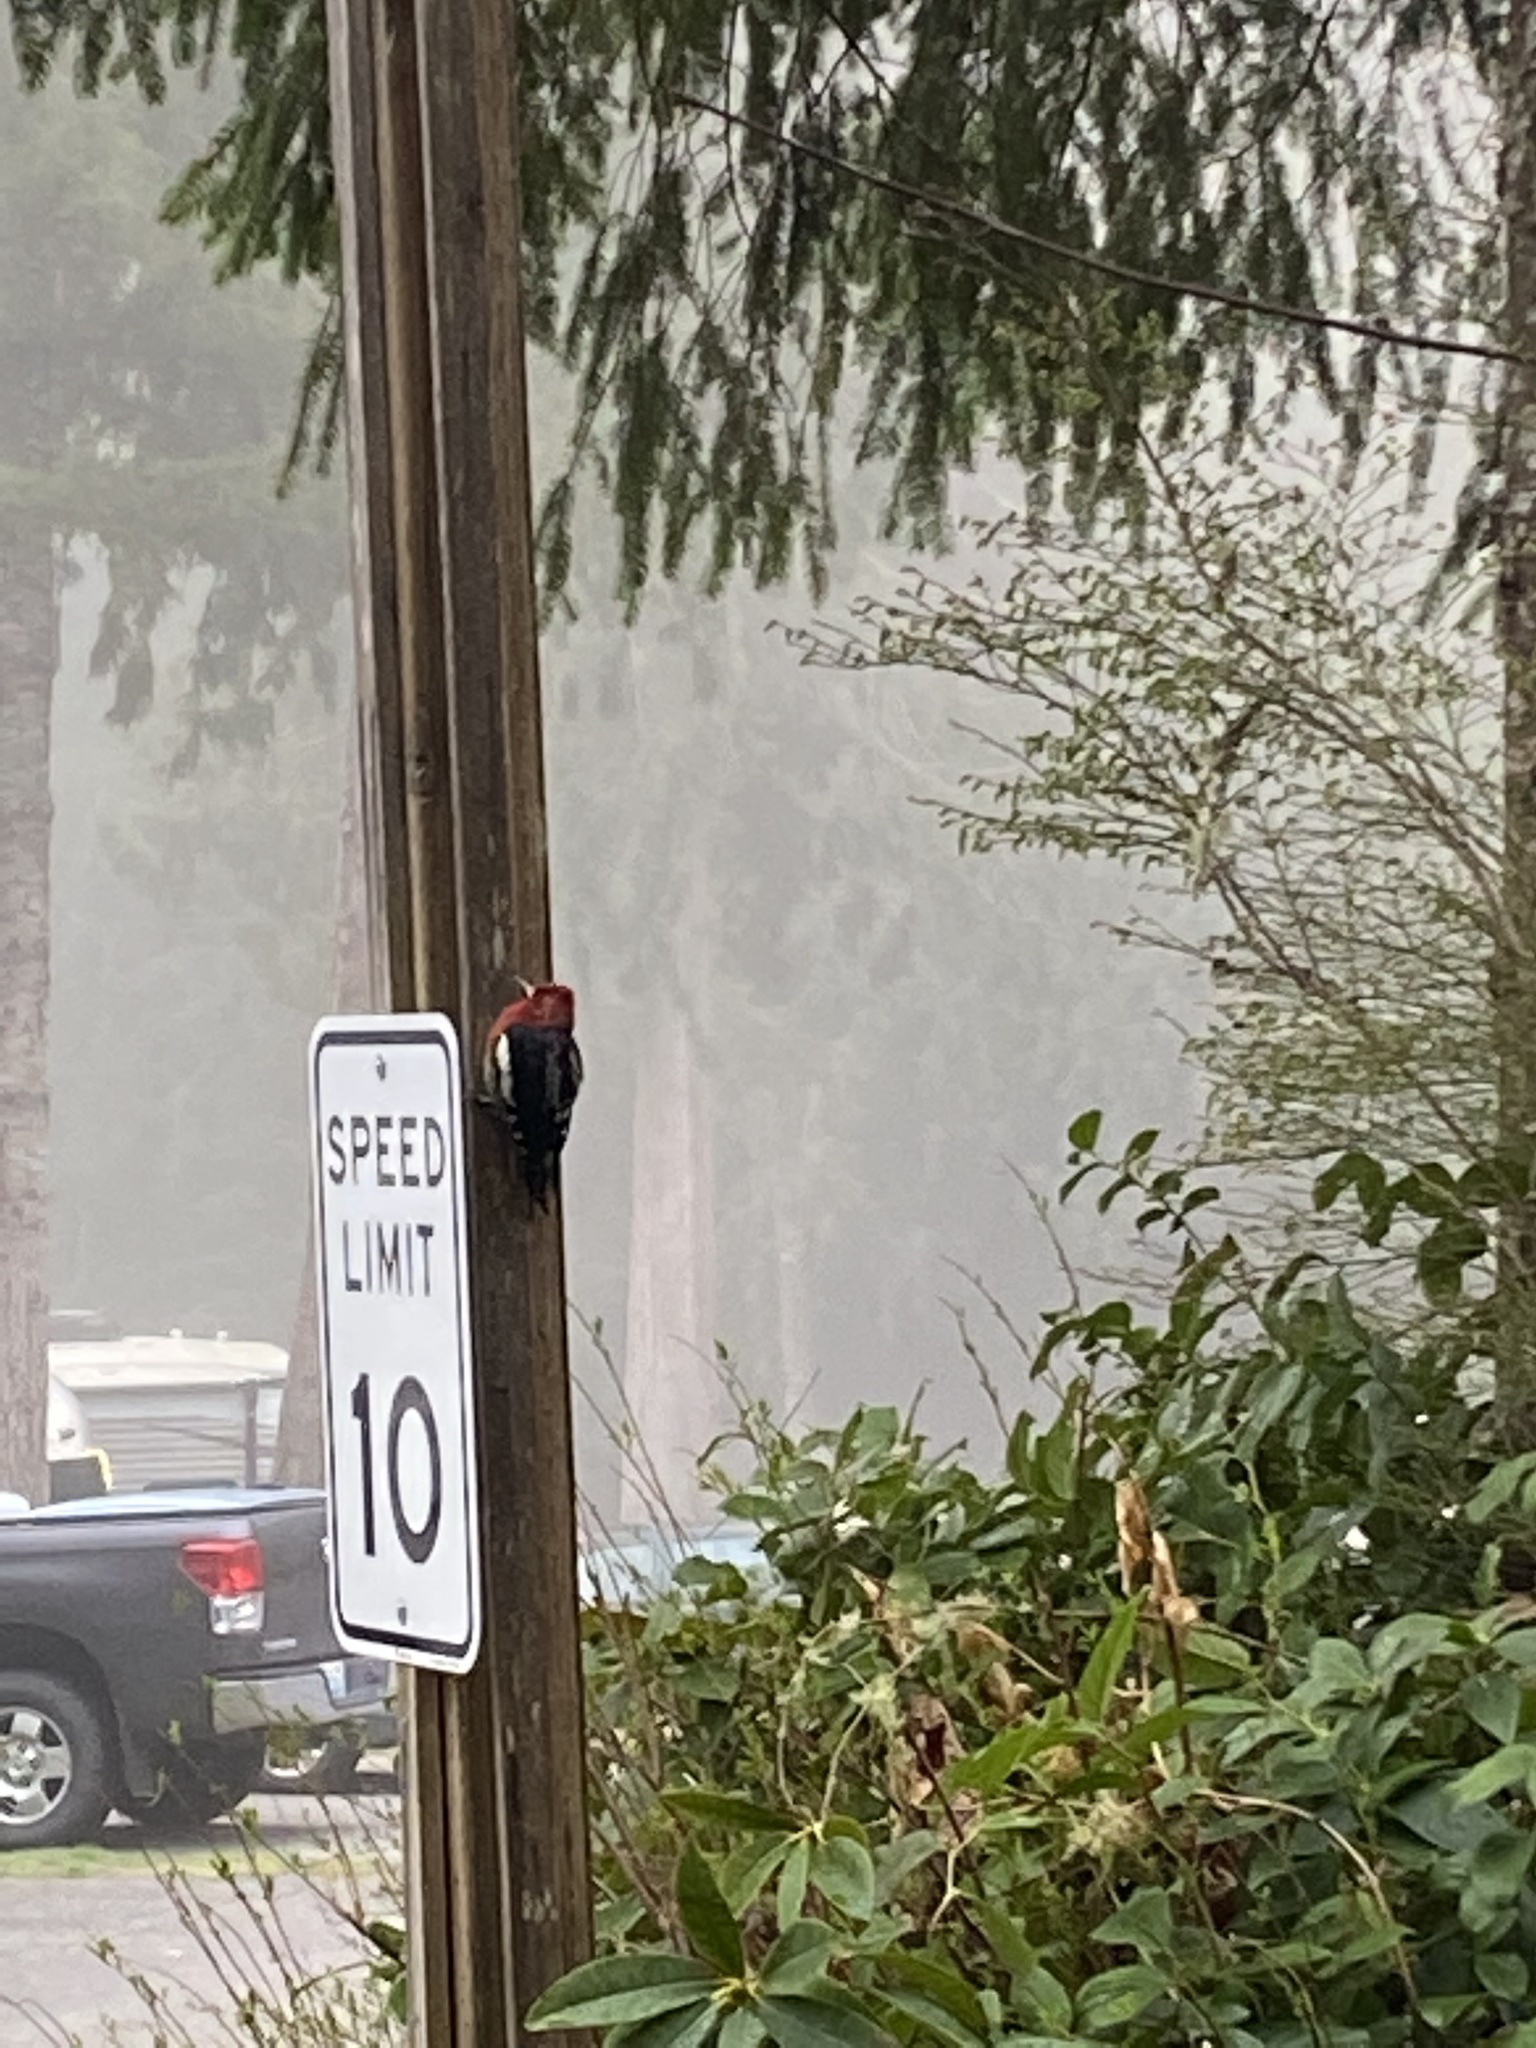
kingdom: Animalia
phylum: Chordata
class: Aves
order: Piciformes
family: Picidae
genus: Sphyrapicus
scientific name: Sphyrapicus ruber
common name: Red-breasted sapsucker
